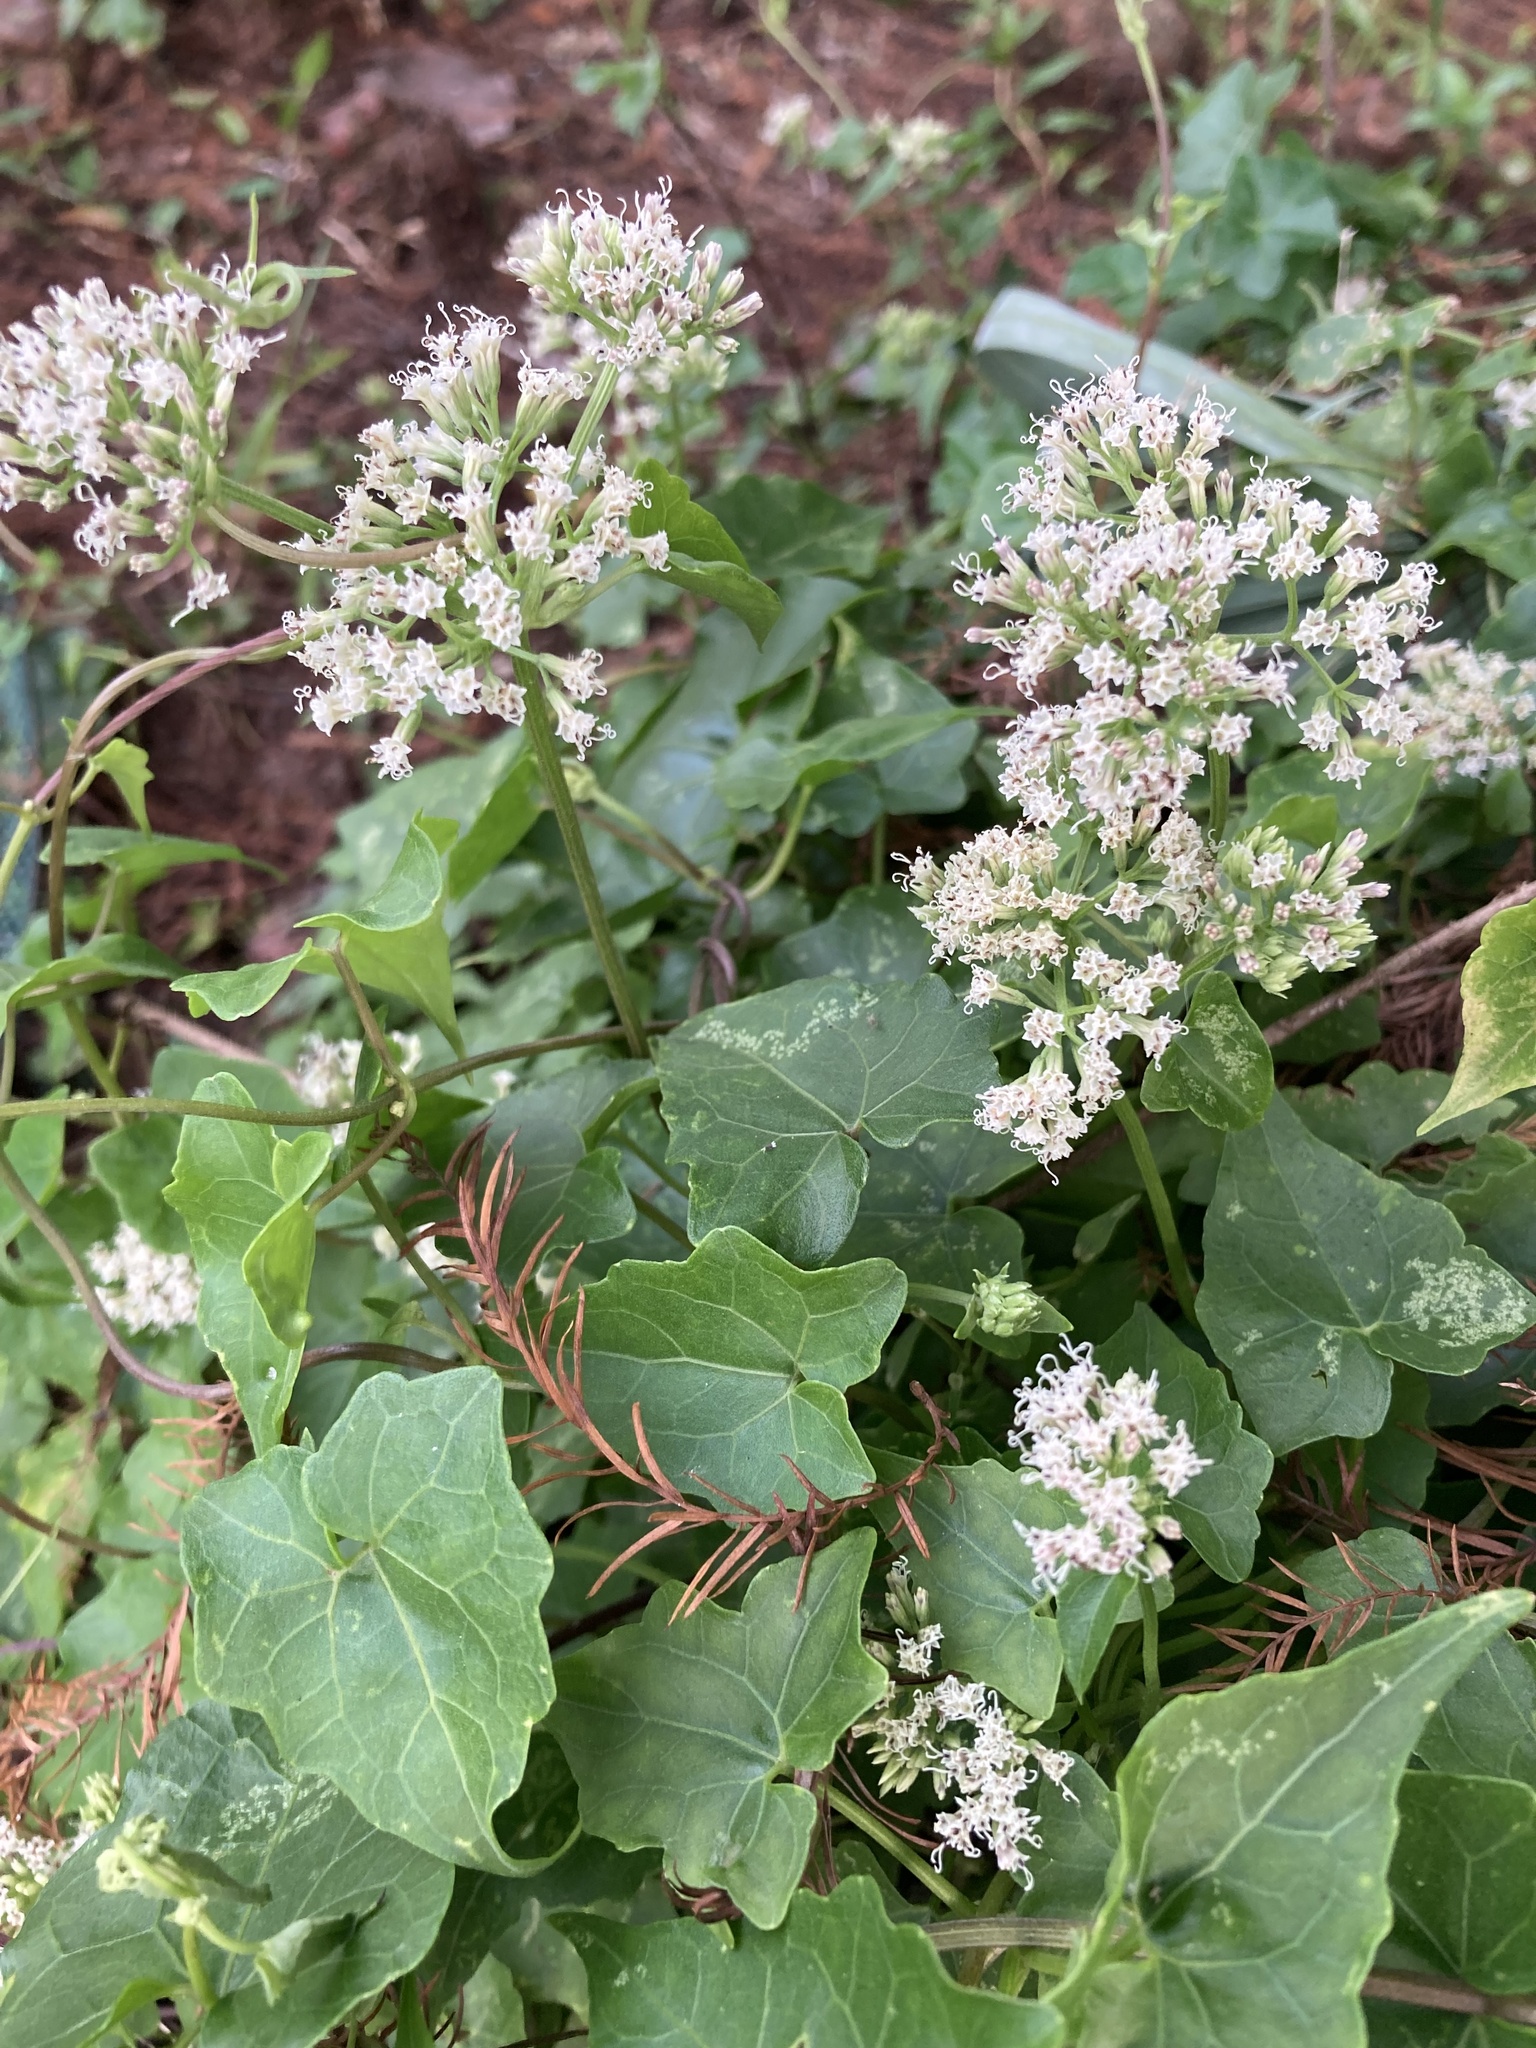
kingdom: Plantae
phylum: Tracheophyta
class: Magnoliopsida
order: Asterales
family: Asteraceae
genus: Mikania
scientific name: Mikania scandens
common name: Climbing hempvine
